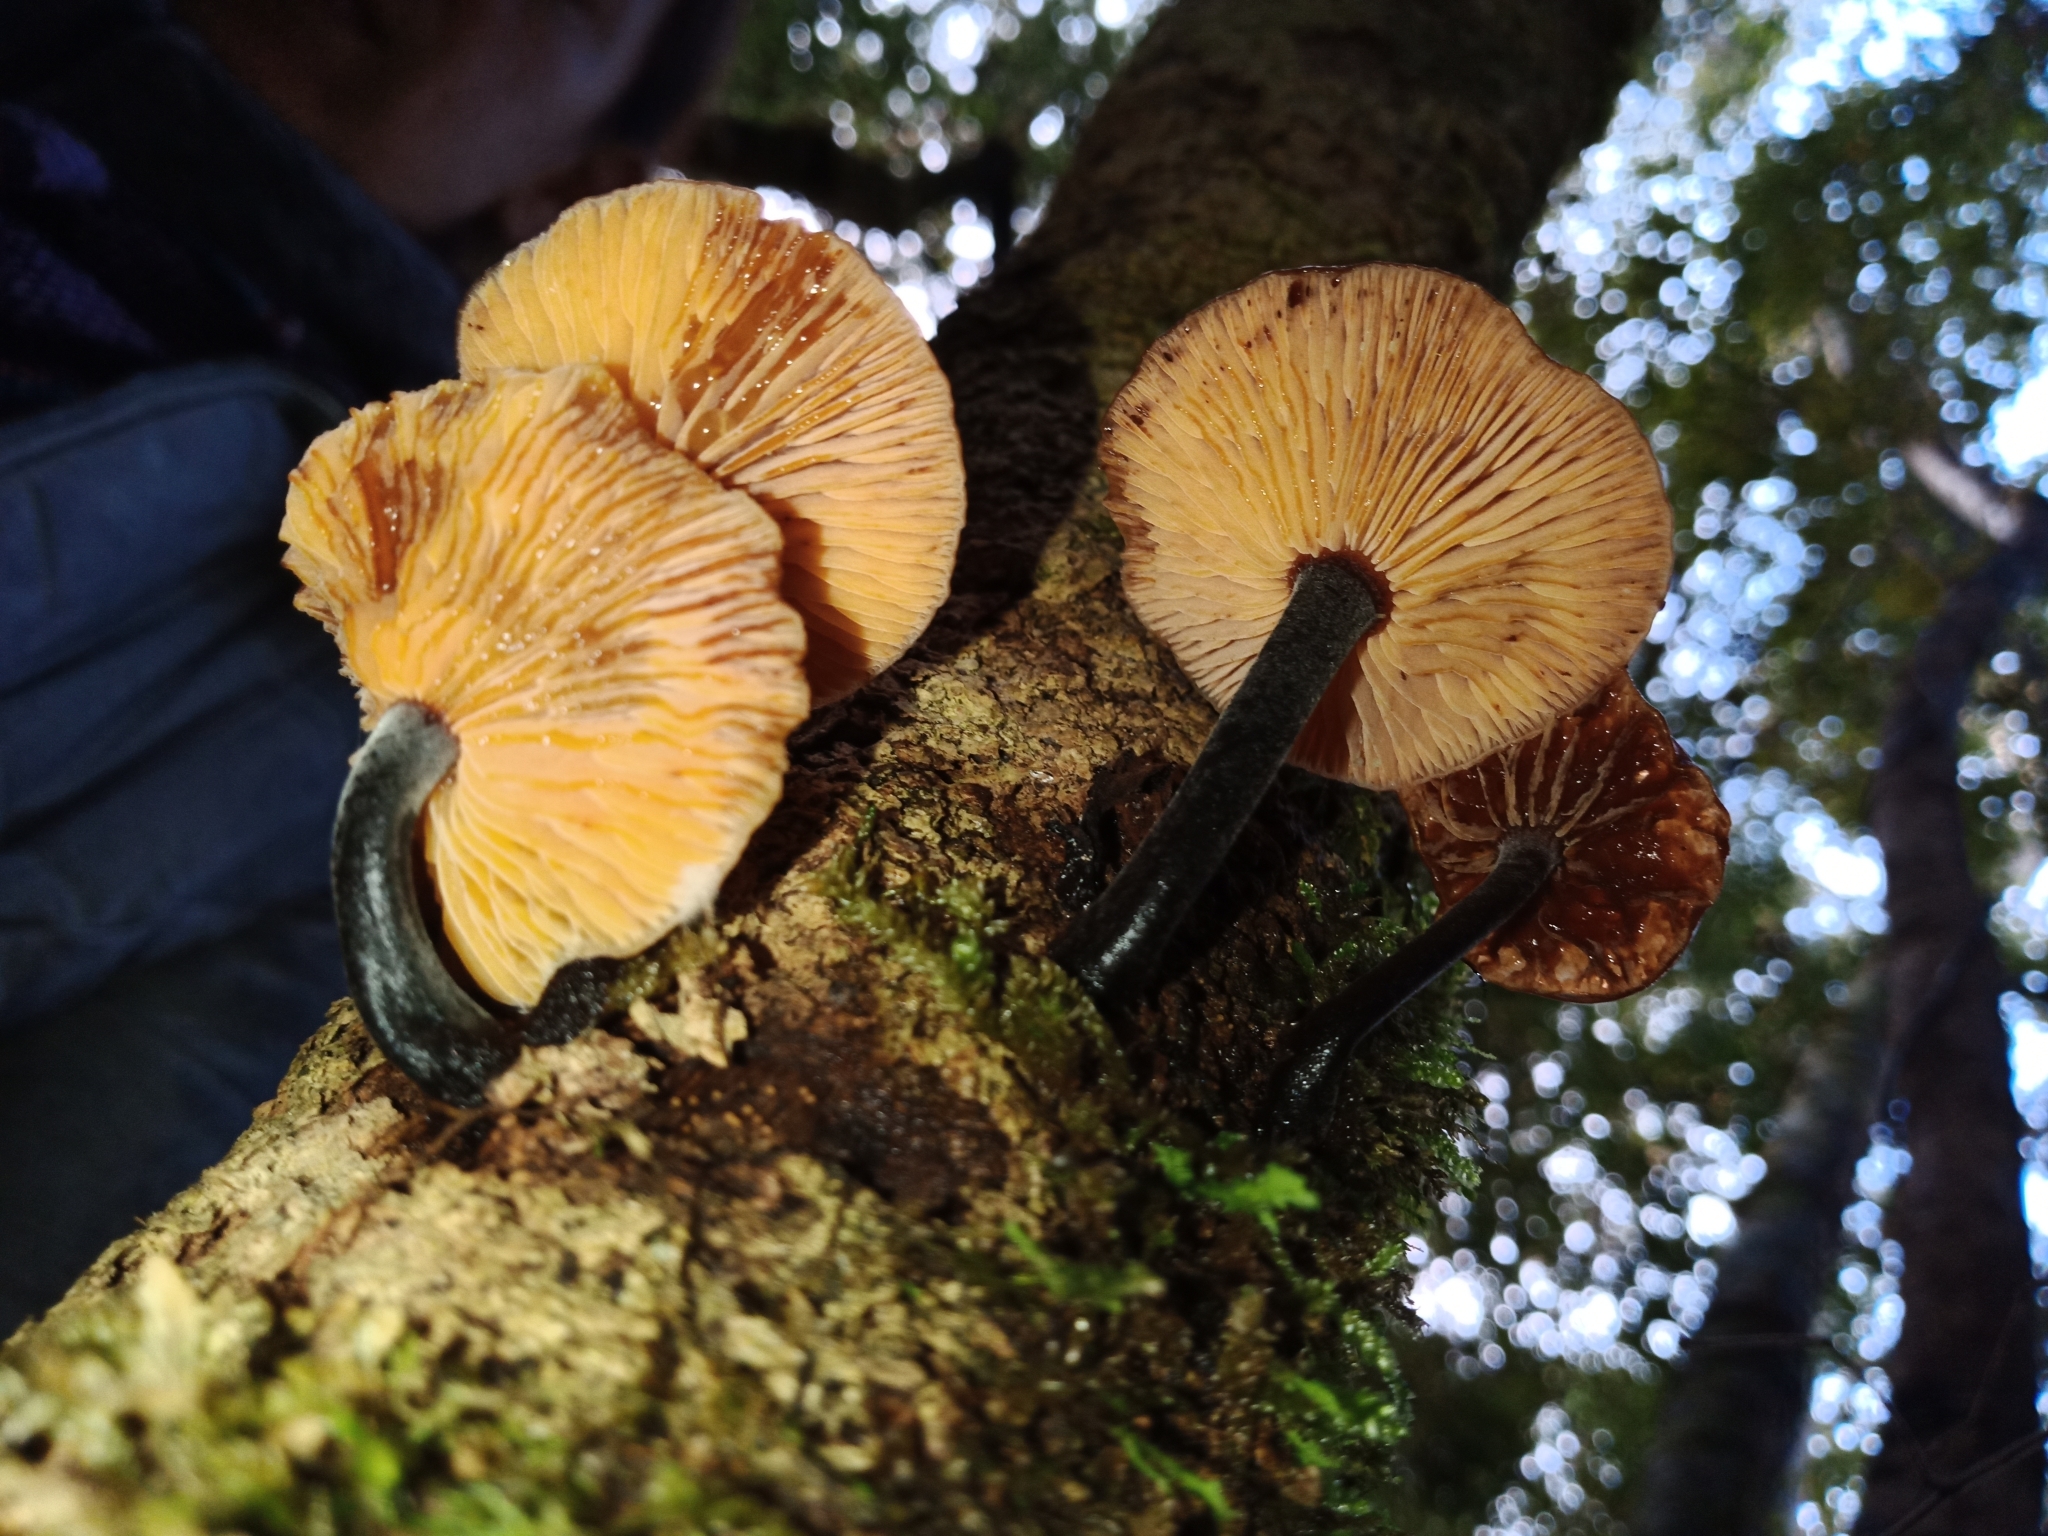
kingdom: Fungi
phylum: Basidiomycota
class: Agaricomycetes
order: Agaricales
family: Physalacriaceae
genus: Flammulina
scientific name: Flammulina velutipes
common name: Velvet shank
